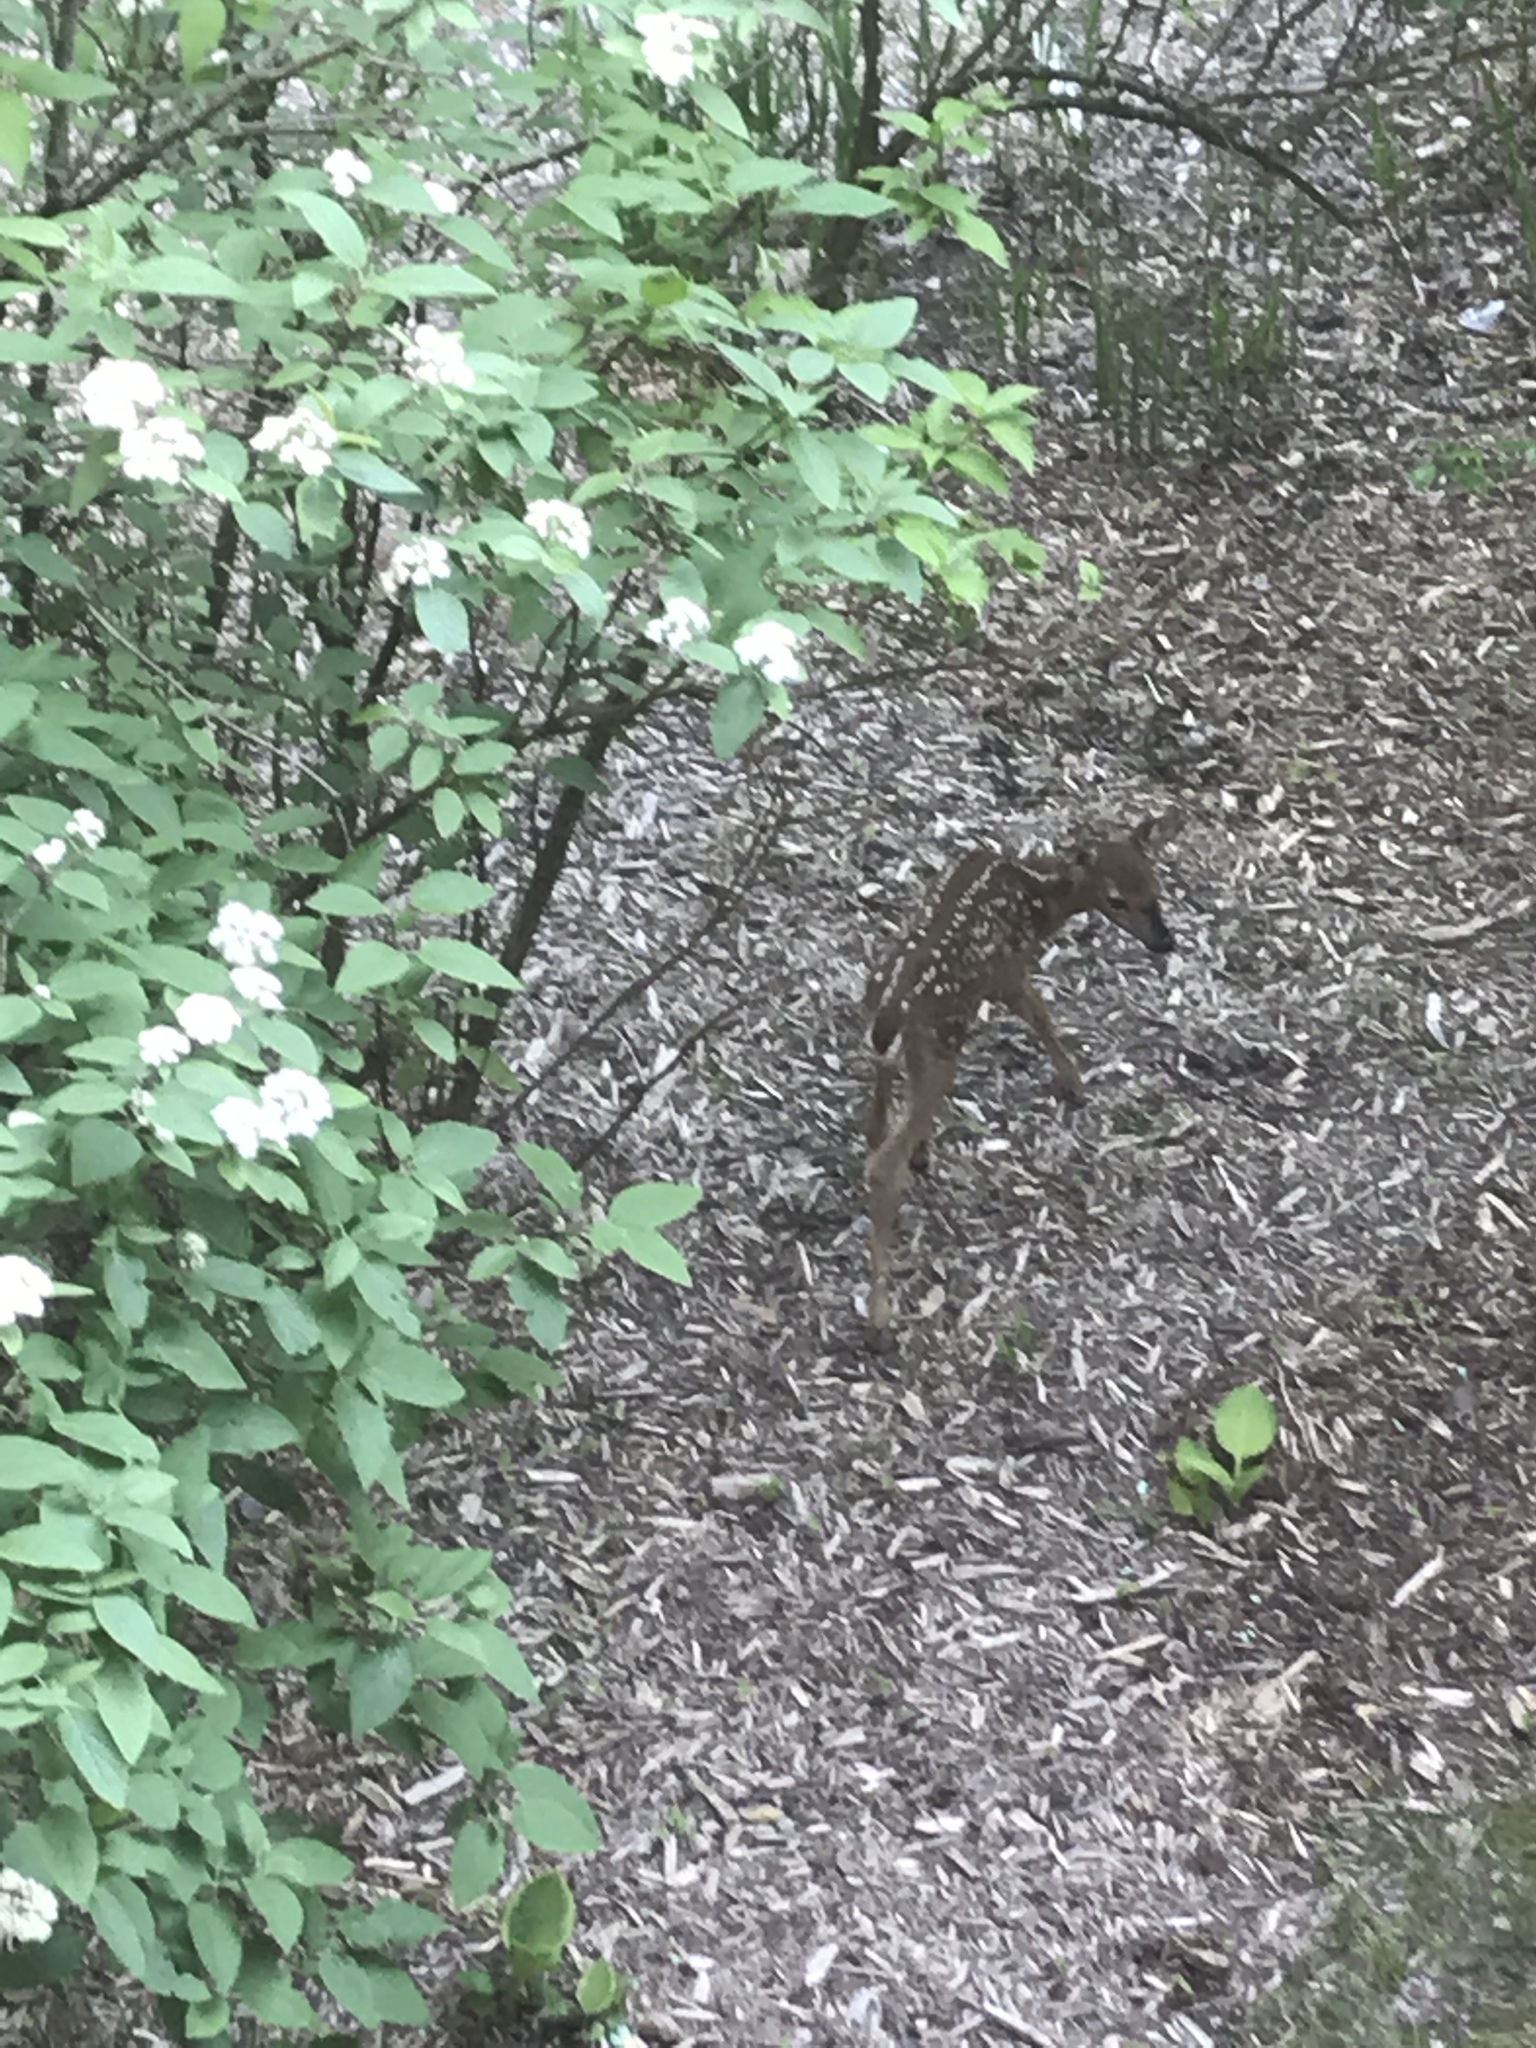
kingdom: Animalia
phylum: Chordata
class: Mammalia
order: Artiodactyla
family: Cervidae
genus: Odocoileus
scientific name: Odocoileus virginianus
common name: White-tailed deer
